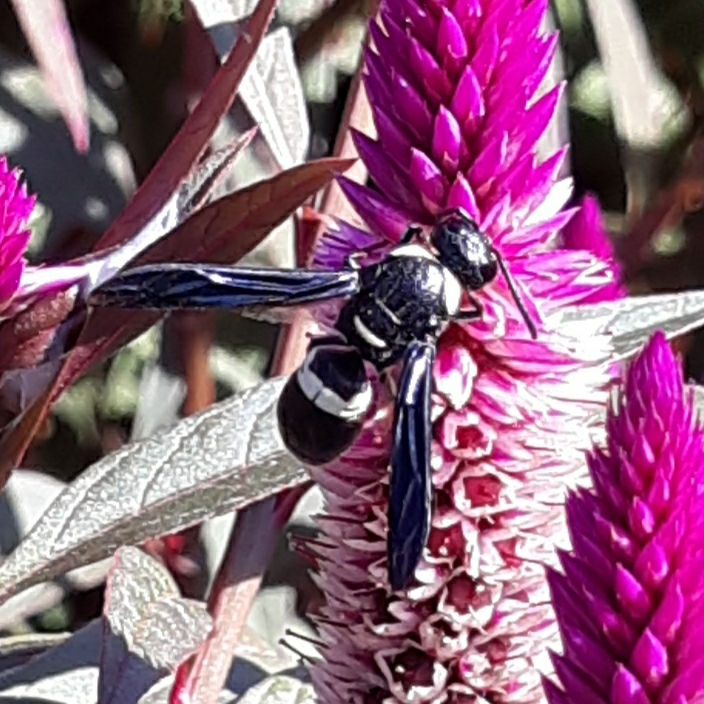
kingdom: Animalia
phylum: Arthropoda
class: Insecta
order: Hymenoptera
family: Eumenidae
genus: Monobia
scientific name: Monobia quadridens
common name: Four-toothed mason wasp
